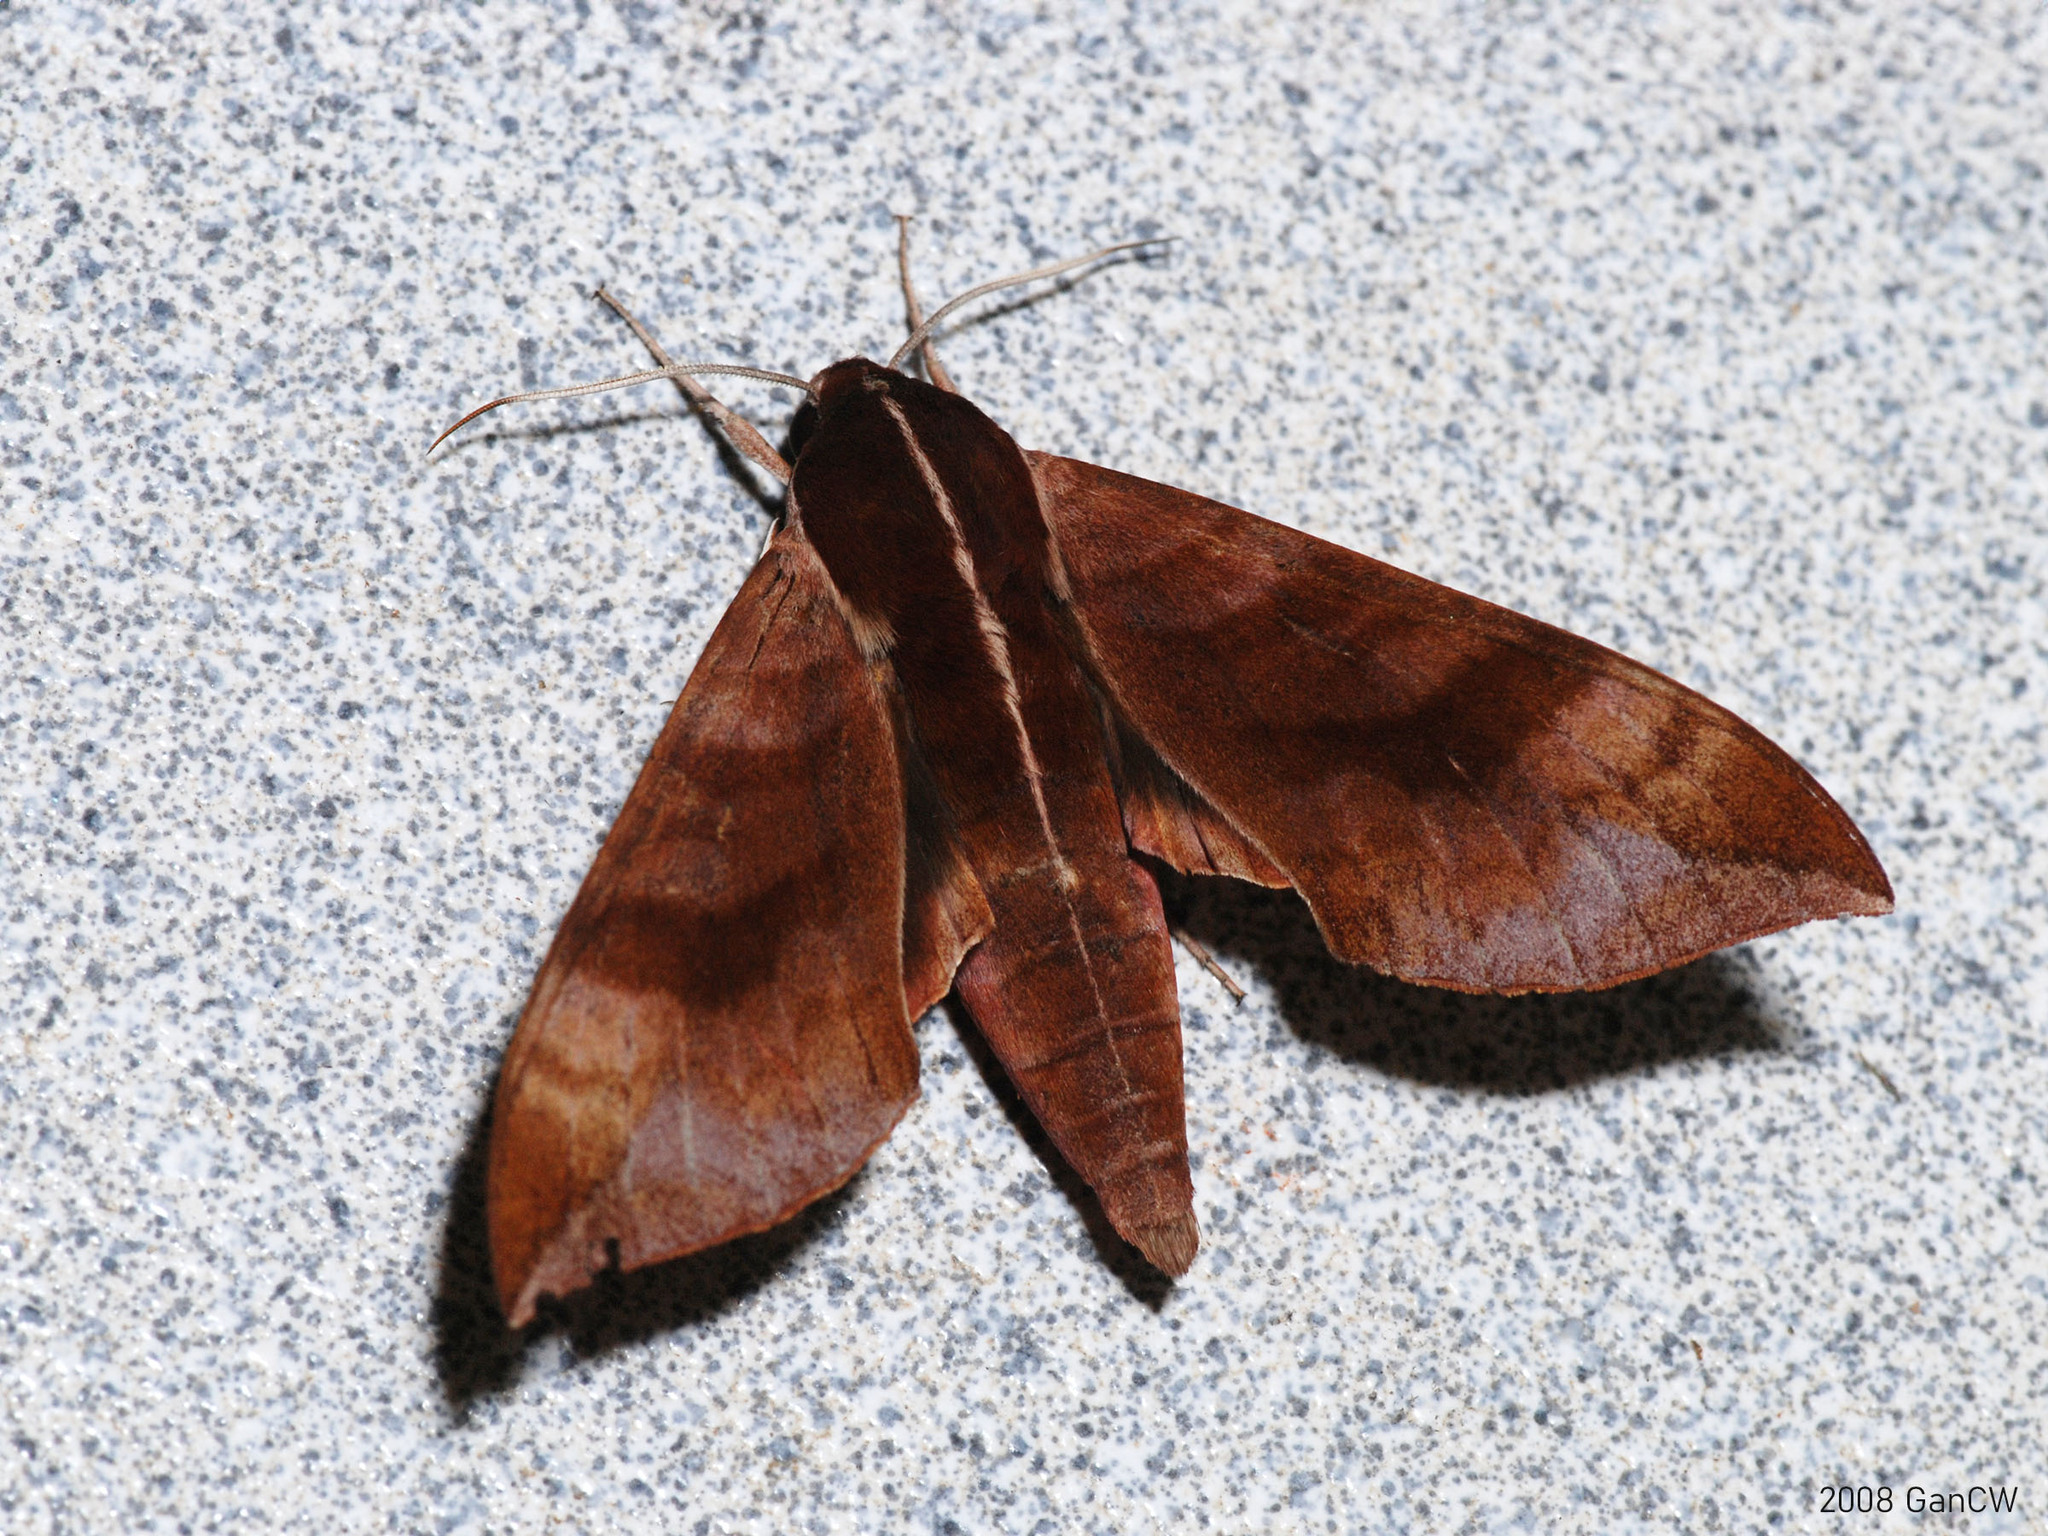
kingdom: Animalia
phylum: Arthropoda
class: Insecta
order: Lepidoptera
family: Sphingidae
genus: Ampelophaga
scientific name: Ampelophaga rubiginosa
